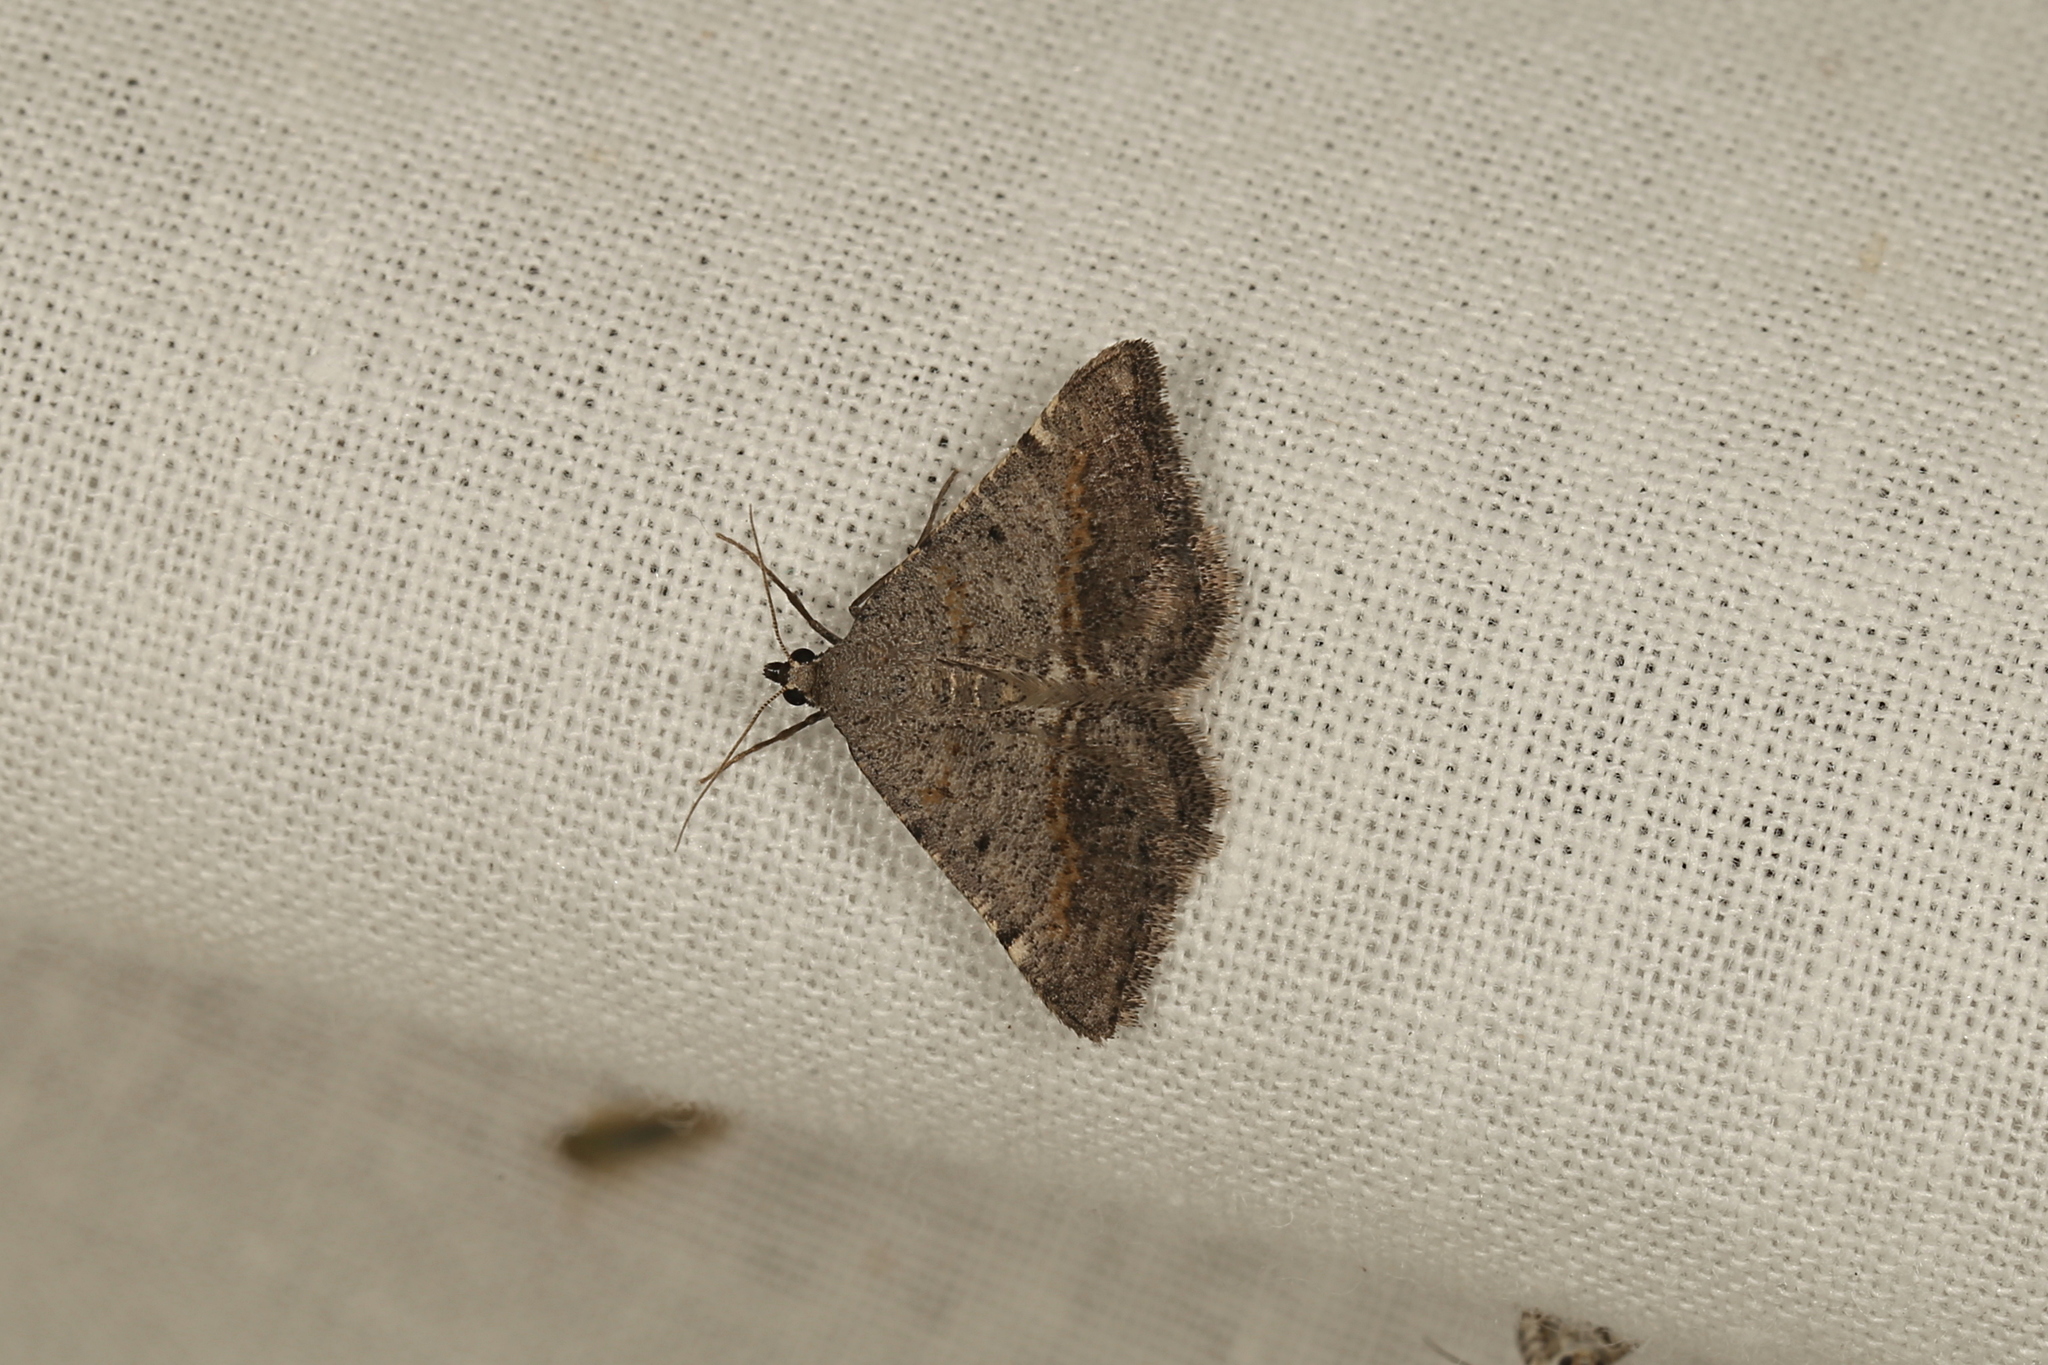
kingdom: Animalia
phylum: Arthropoda
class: Insecta
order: Lepidoptera
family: Geometridae
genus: Taxeotis
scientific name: Taxeotis didymosticha
